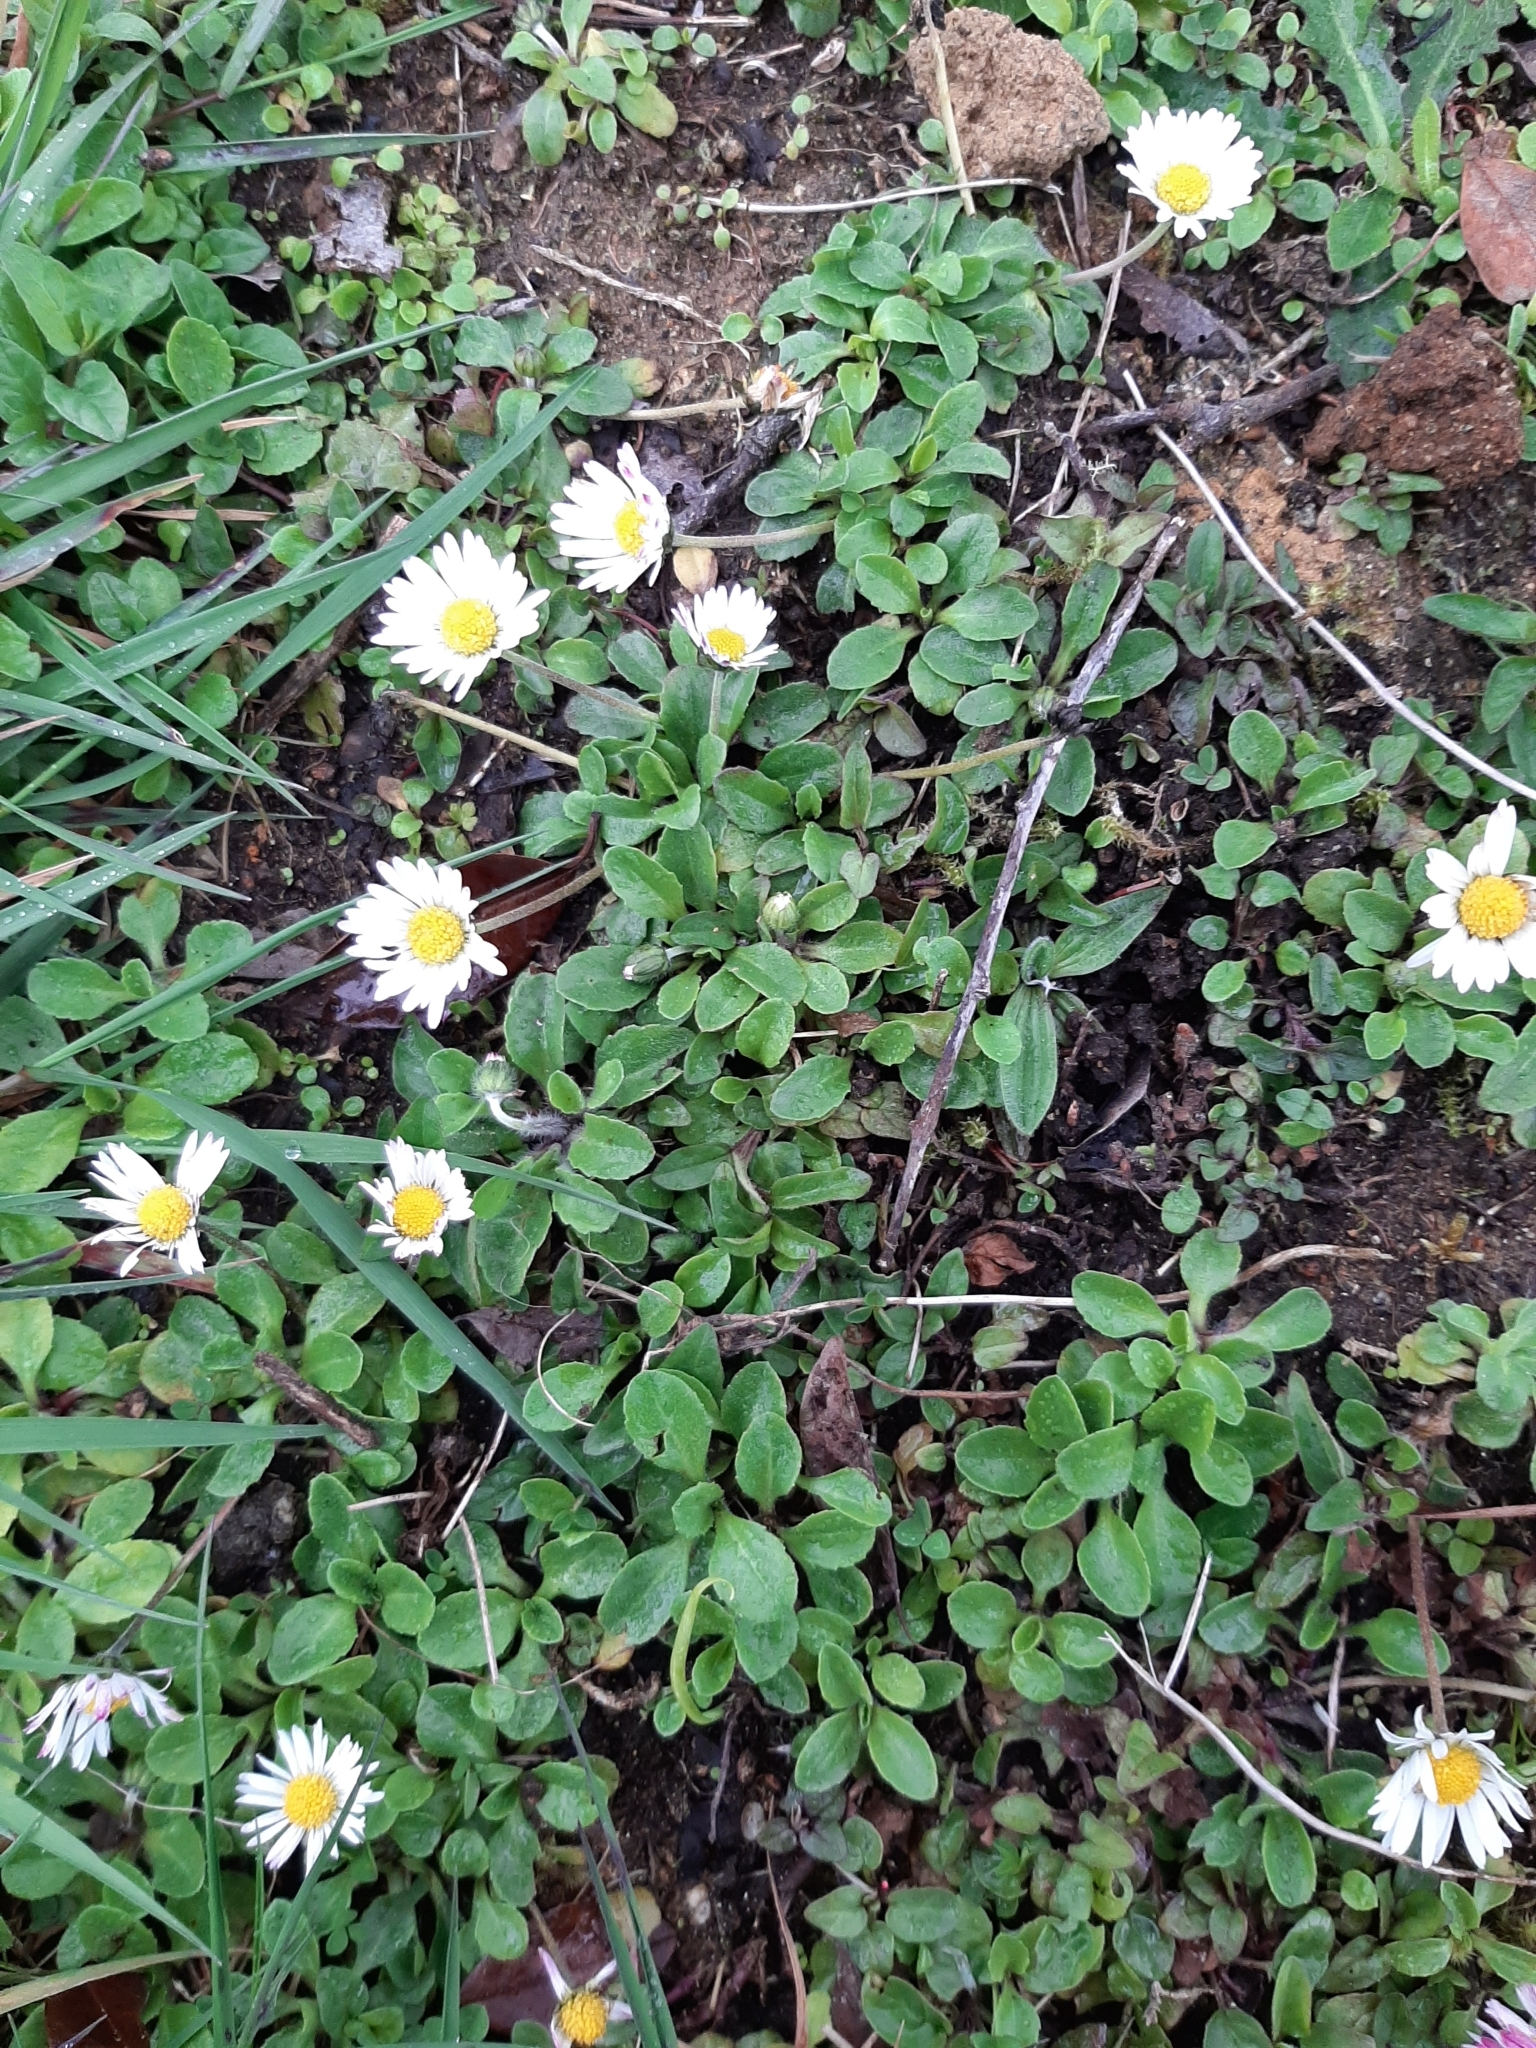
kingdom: Plantae
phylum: Tracheophyta
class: Magnoliopsida
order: Asterales
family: Asteraceae
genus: Bellis
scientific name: Bellis perennis
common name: Lawndaisy
